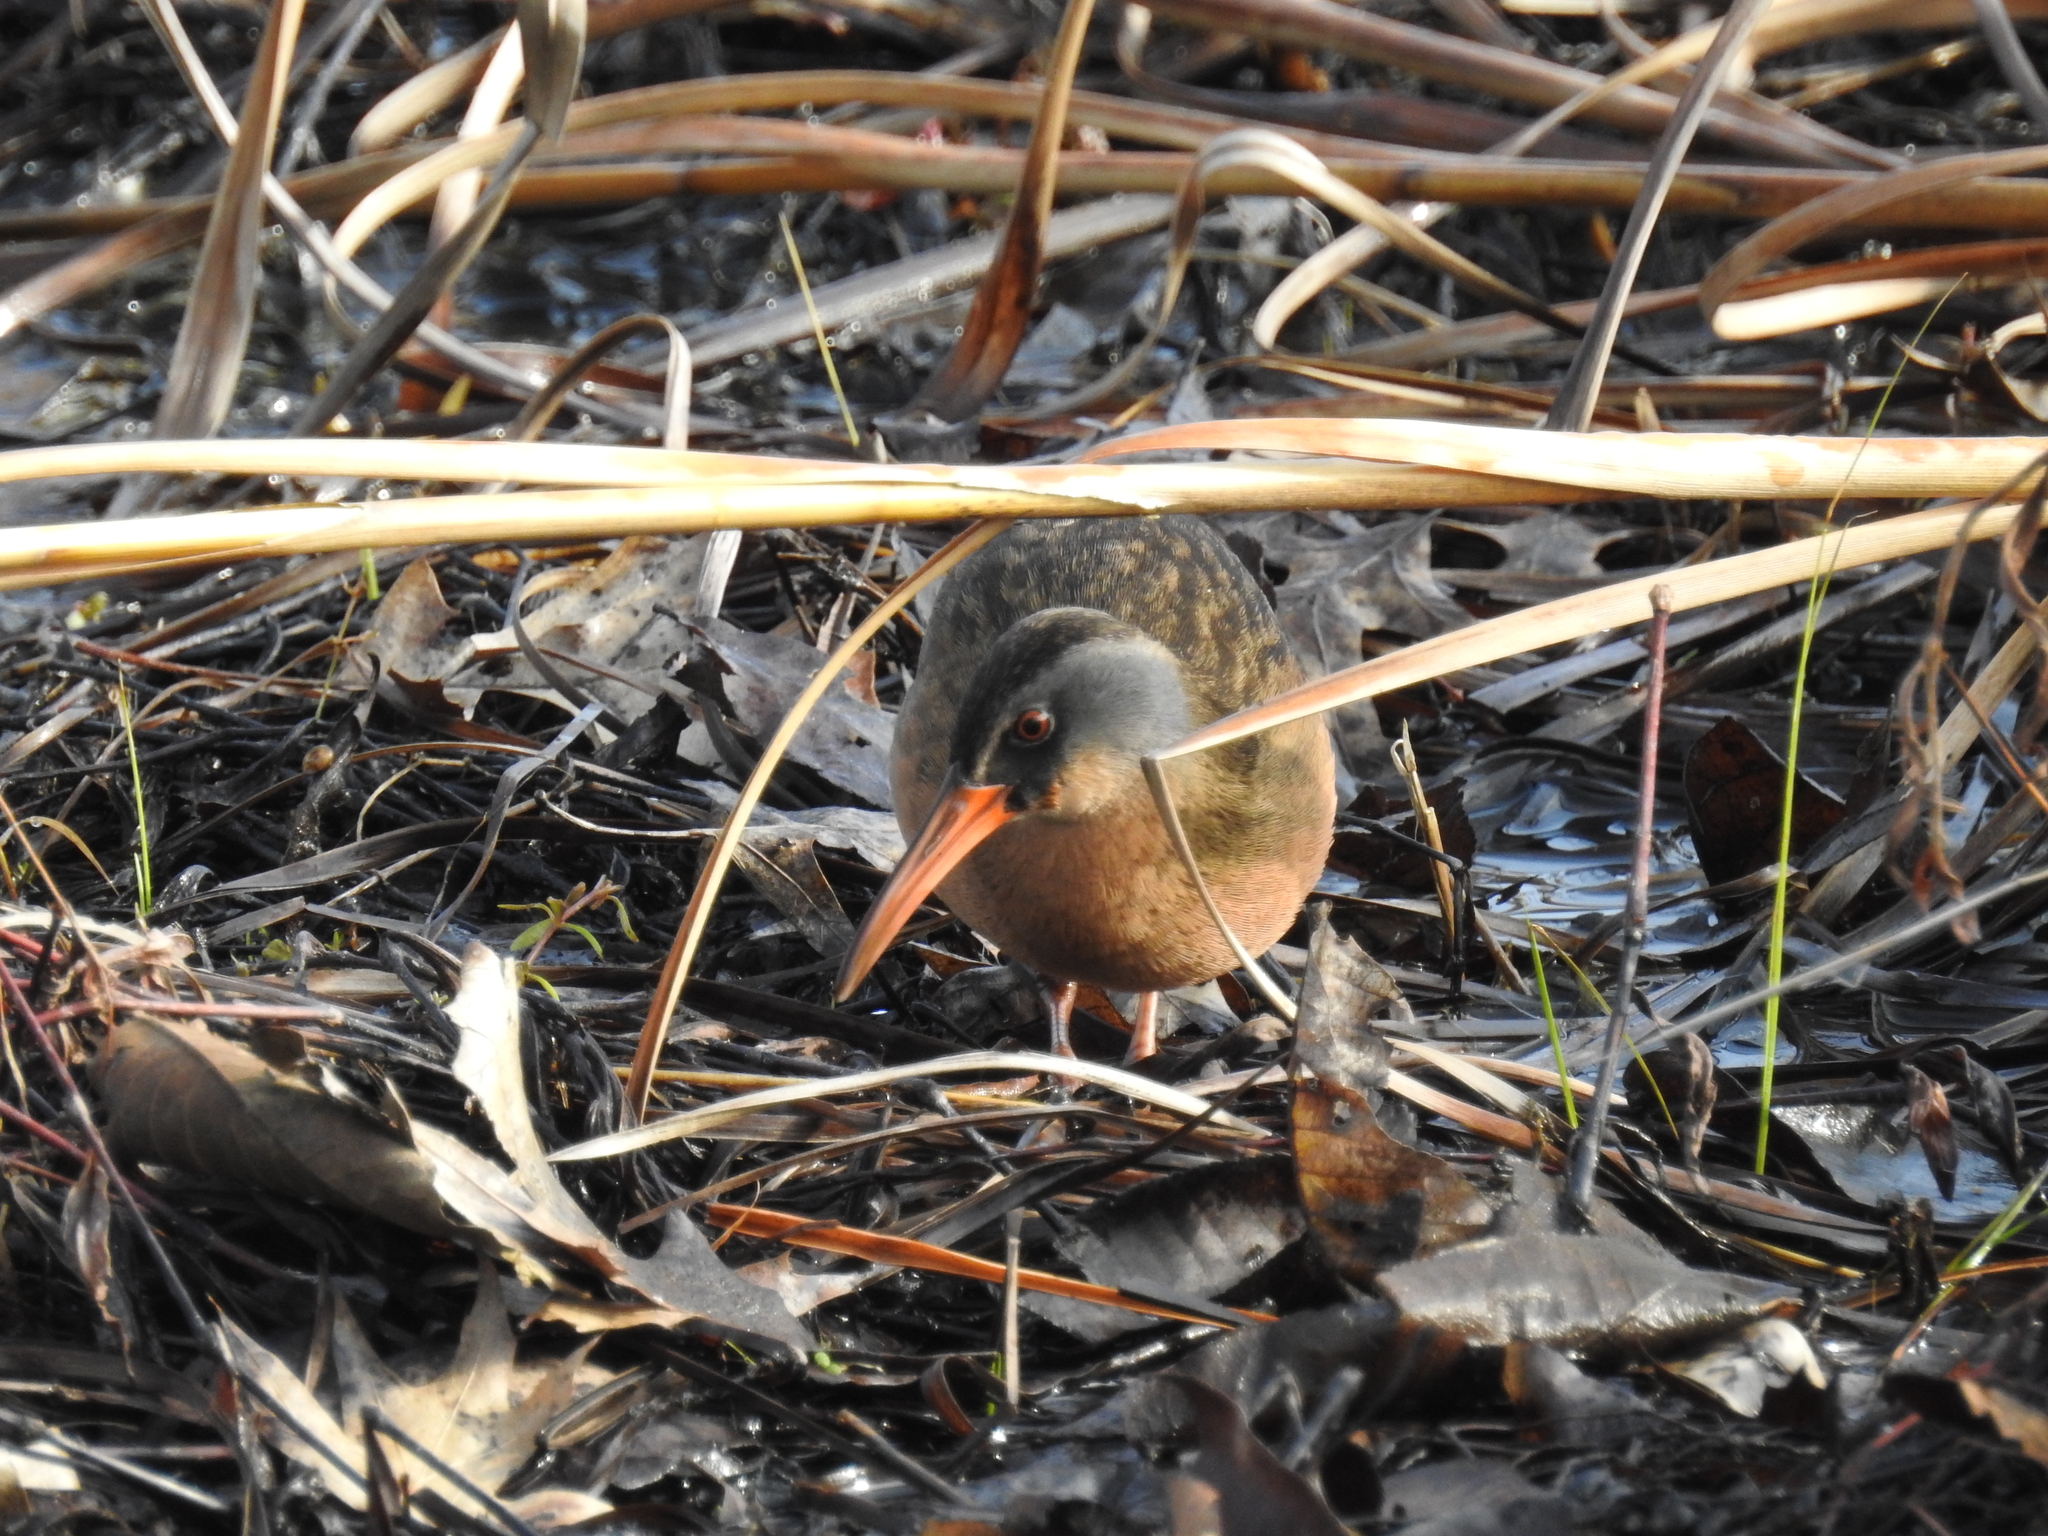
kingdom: Animalia
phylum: Chordata
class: Aves
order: Gruiformes
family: Rallidae
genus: Rallus
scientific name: Rallus limicola
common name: Virginia rail
